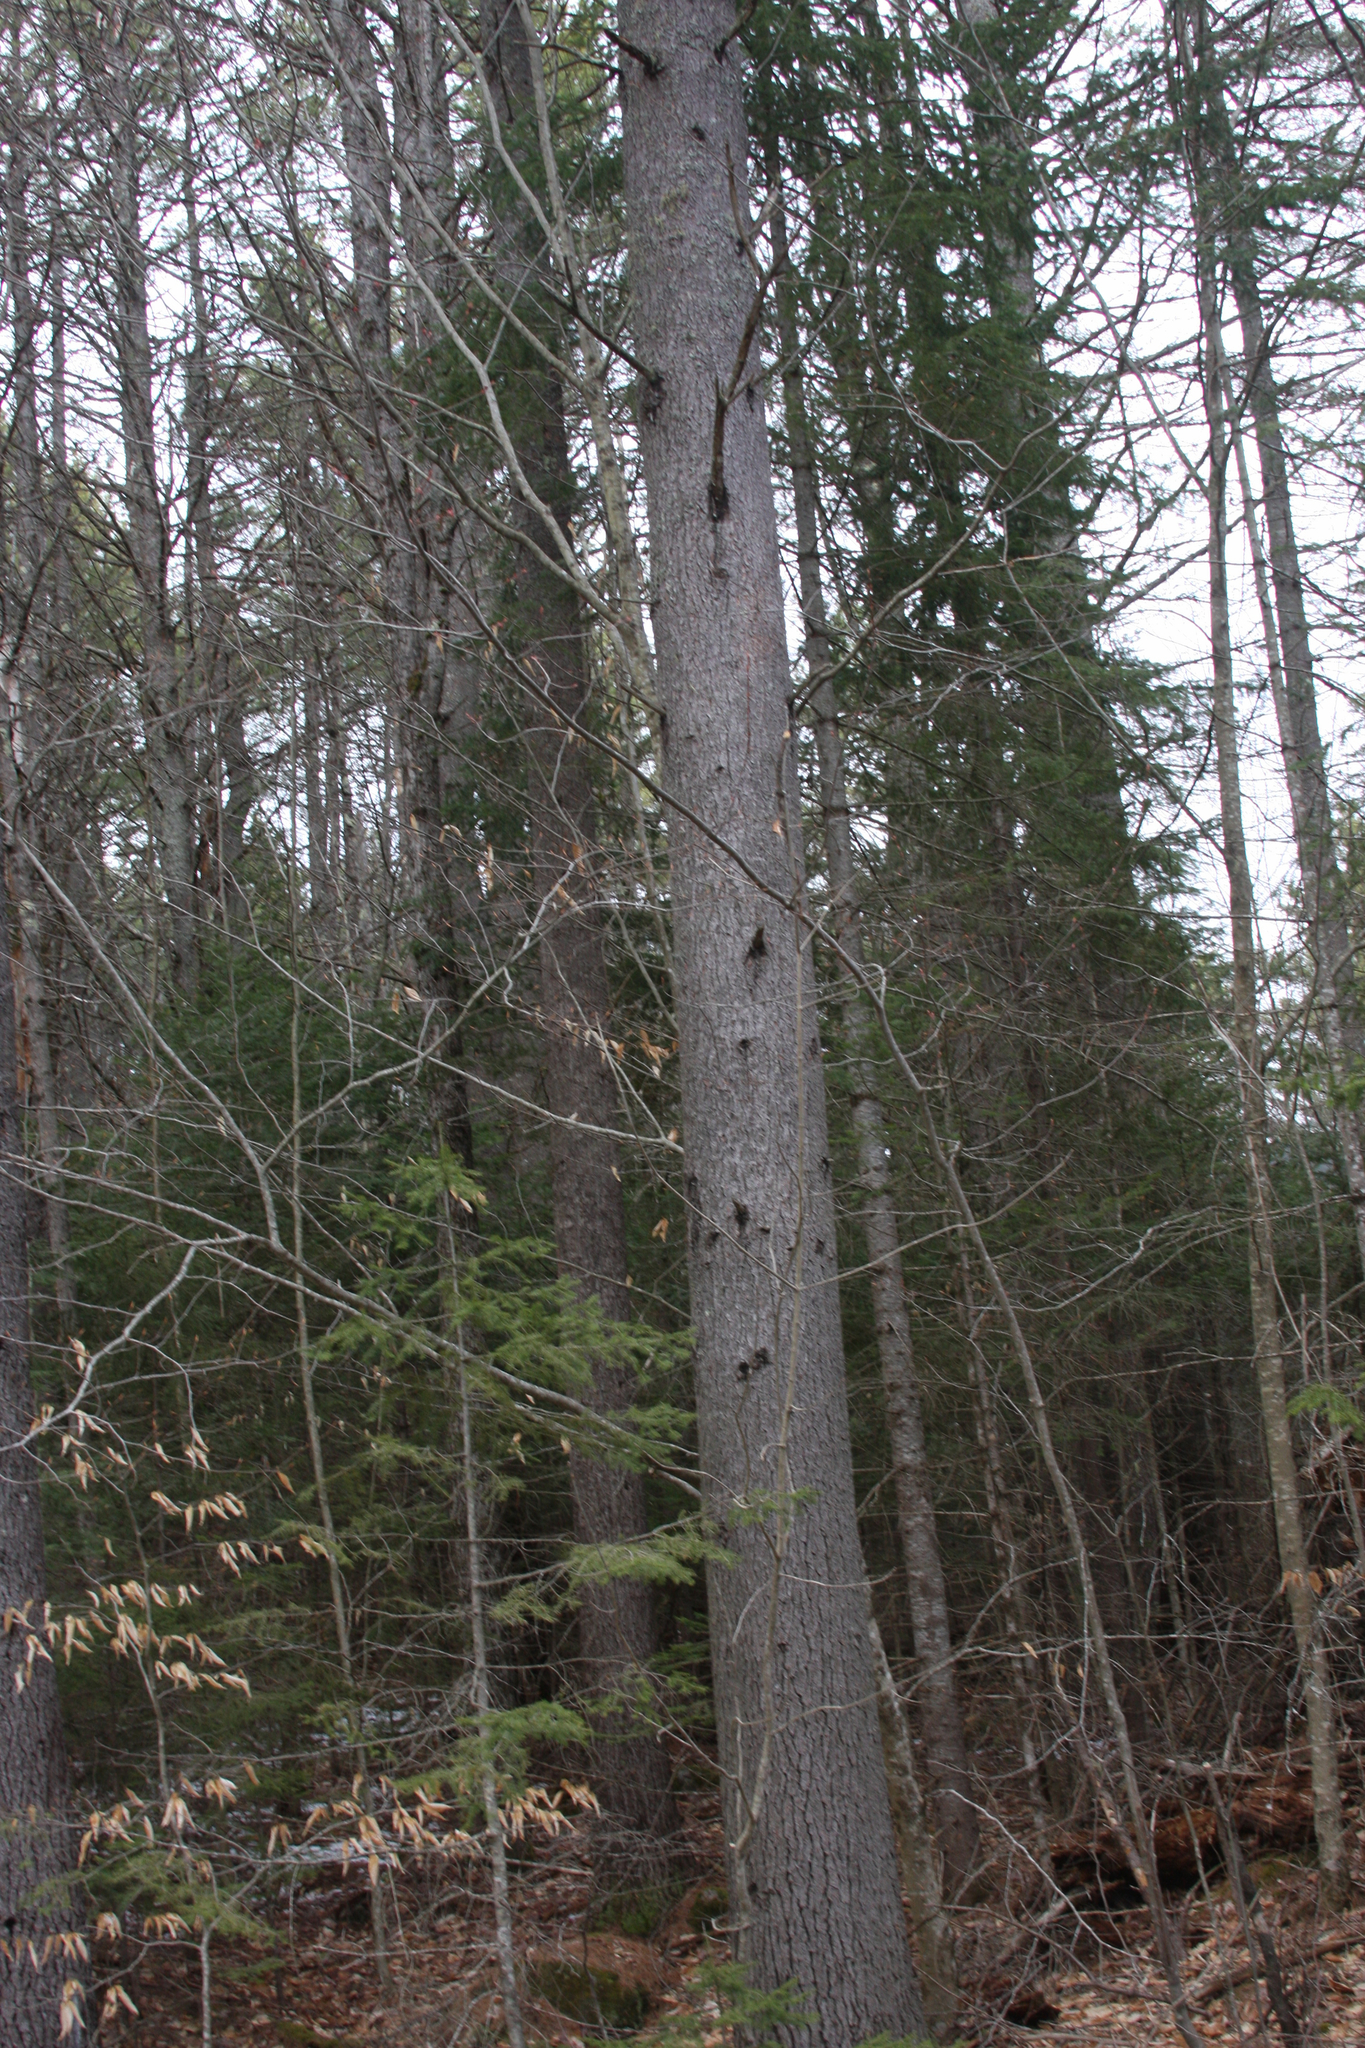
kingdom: Plantae
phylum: Tracheophyta
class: Pinopsida
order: Pinales
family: Pinaceae
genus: Pinus
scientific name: Pinus strobus
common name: Weymouth pine
